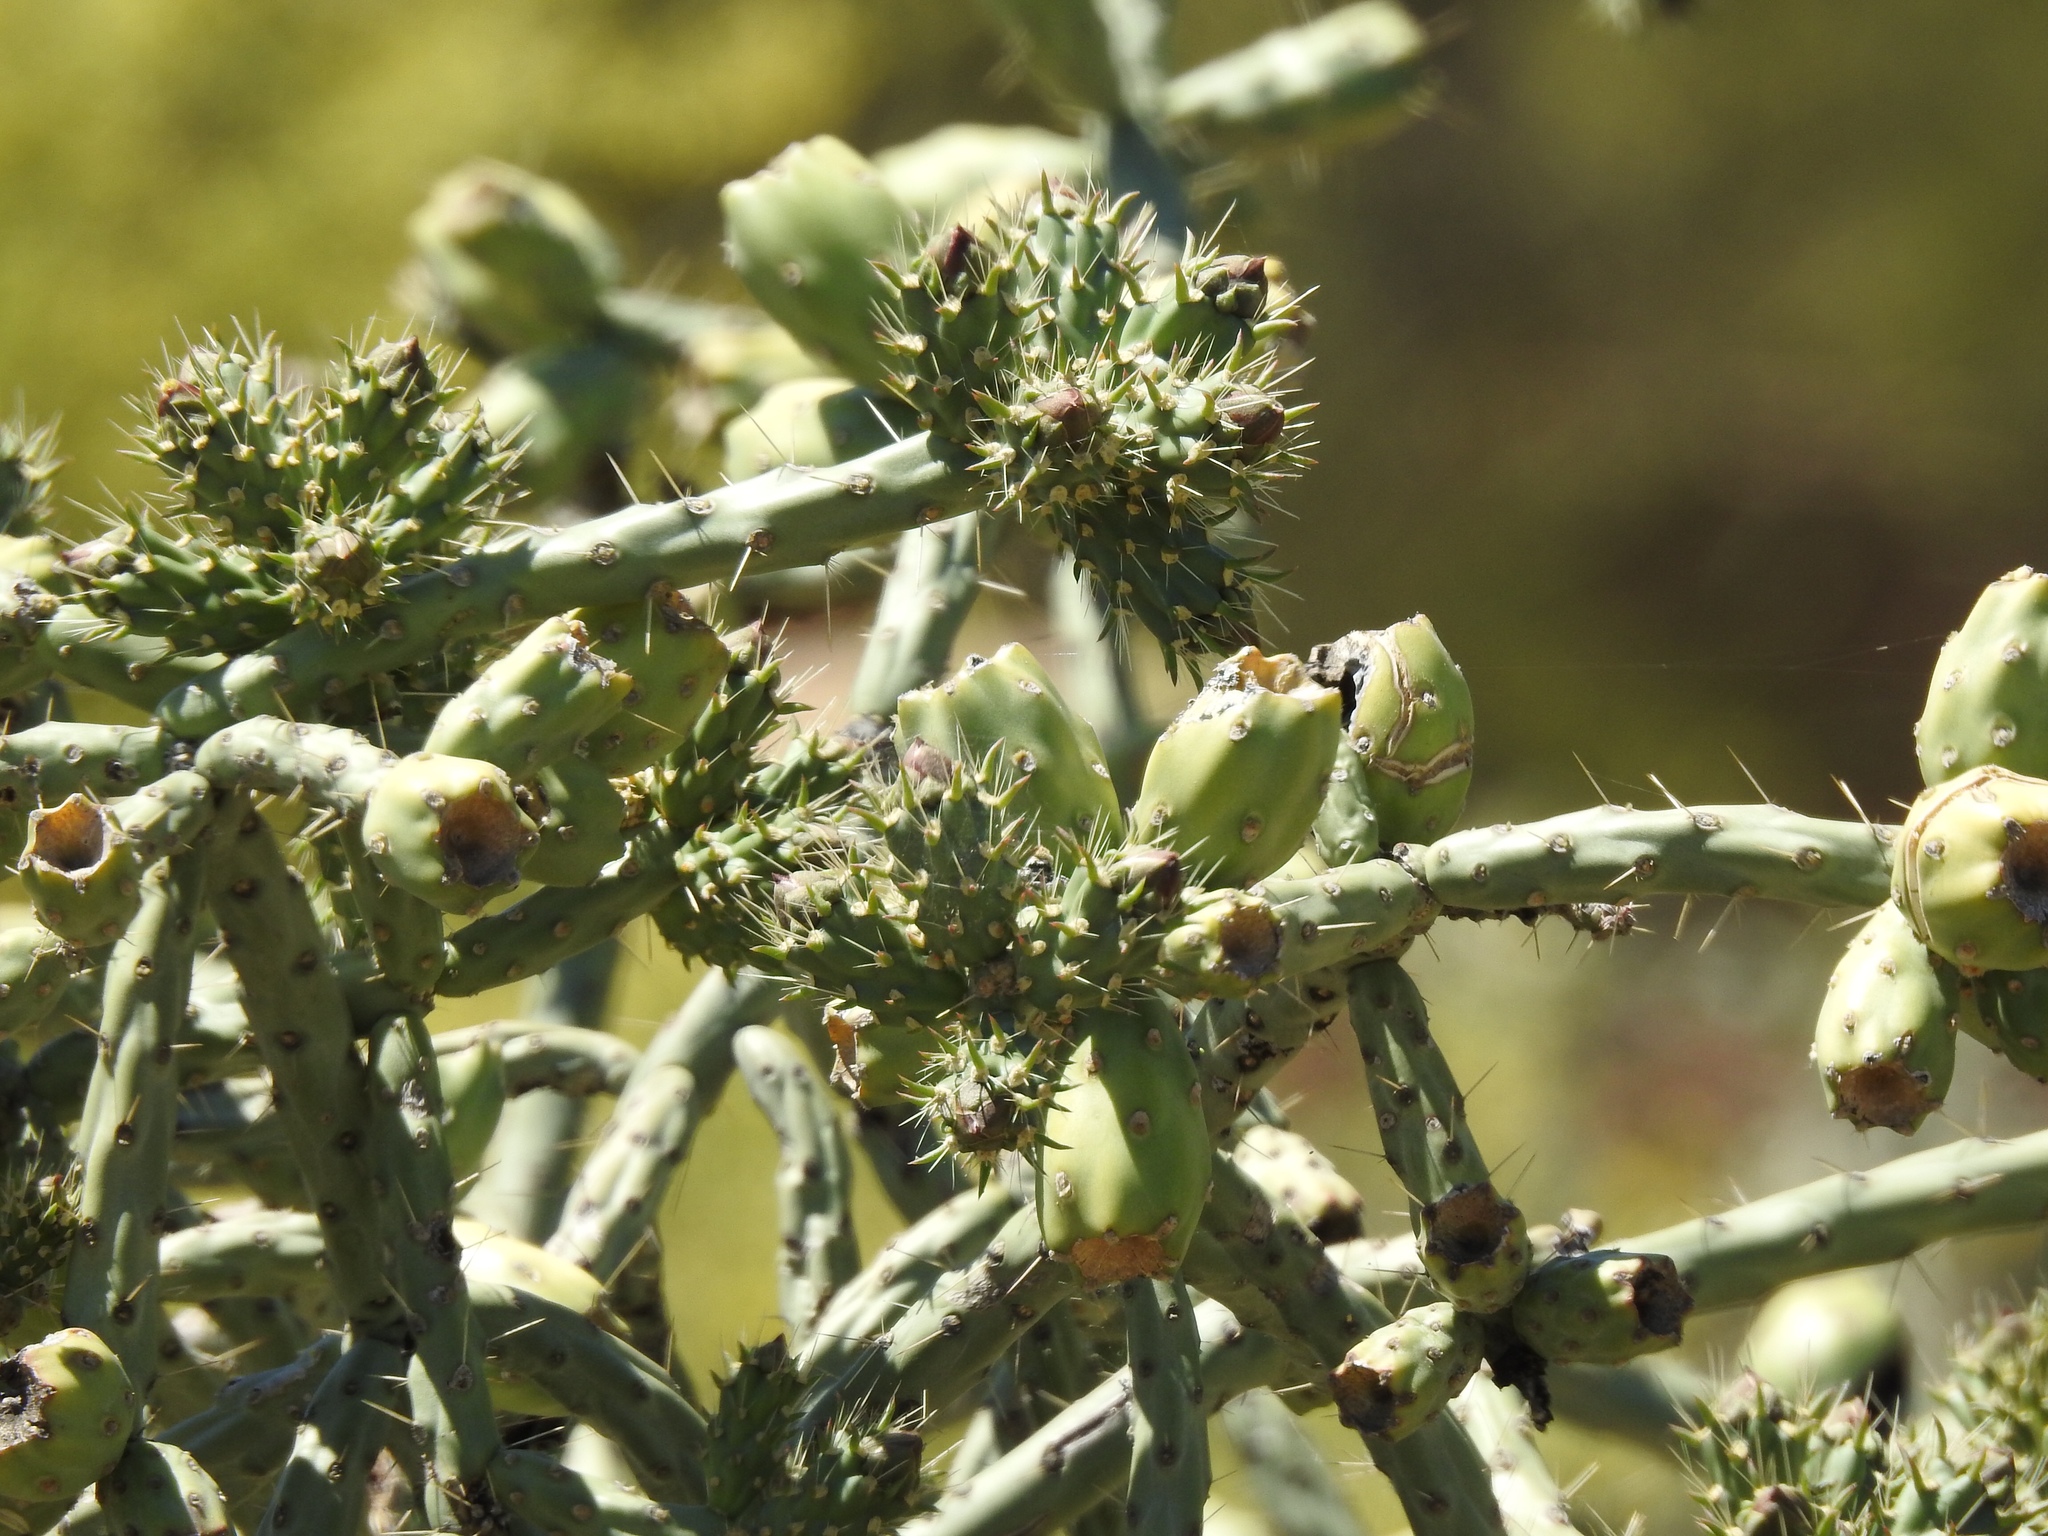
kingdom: Plantae
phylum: Tracheophyta
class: Magnoliopsida
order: Caryophyllales
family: Cactaceae
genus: Cylindropuntia
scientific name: Cylindropuntia arbuscula
